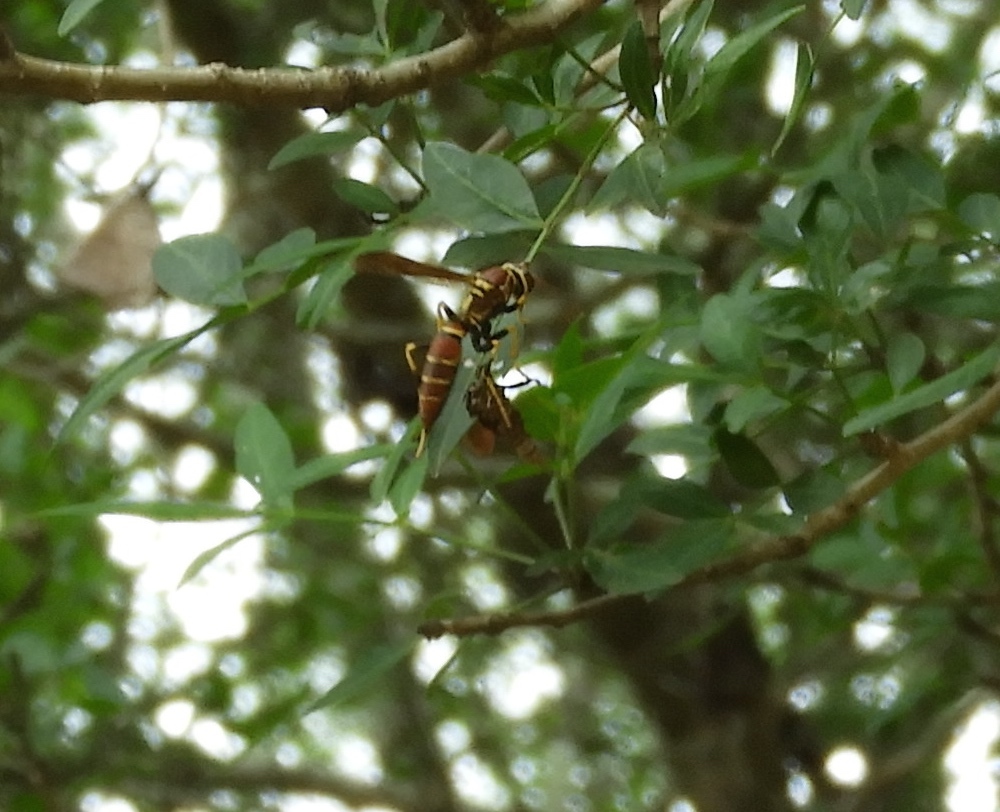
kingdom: Animalia
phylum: Arthropoda
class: Insecta
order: Hymenoptera
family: Eumenidae
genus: Polistes
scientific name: Polistes
